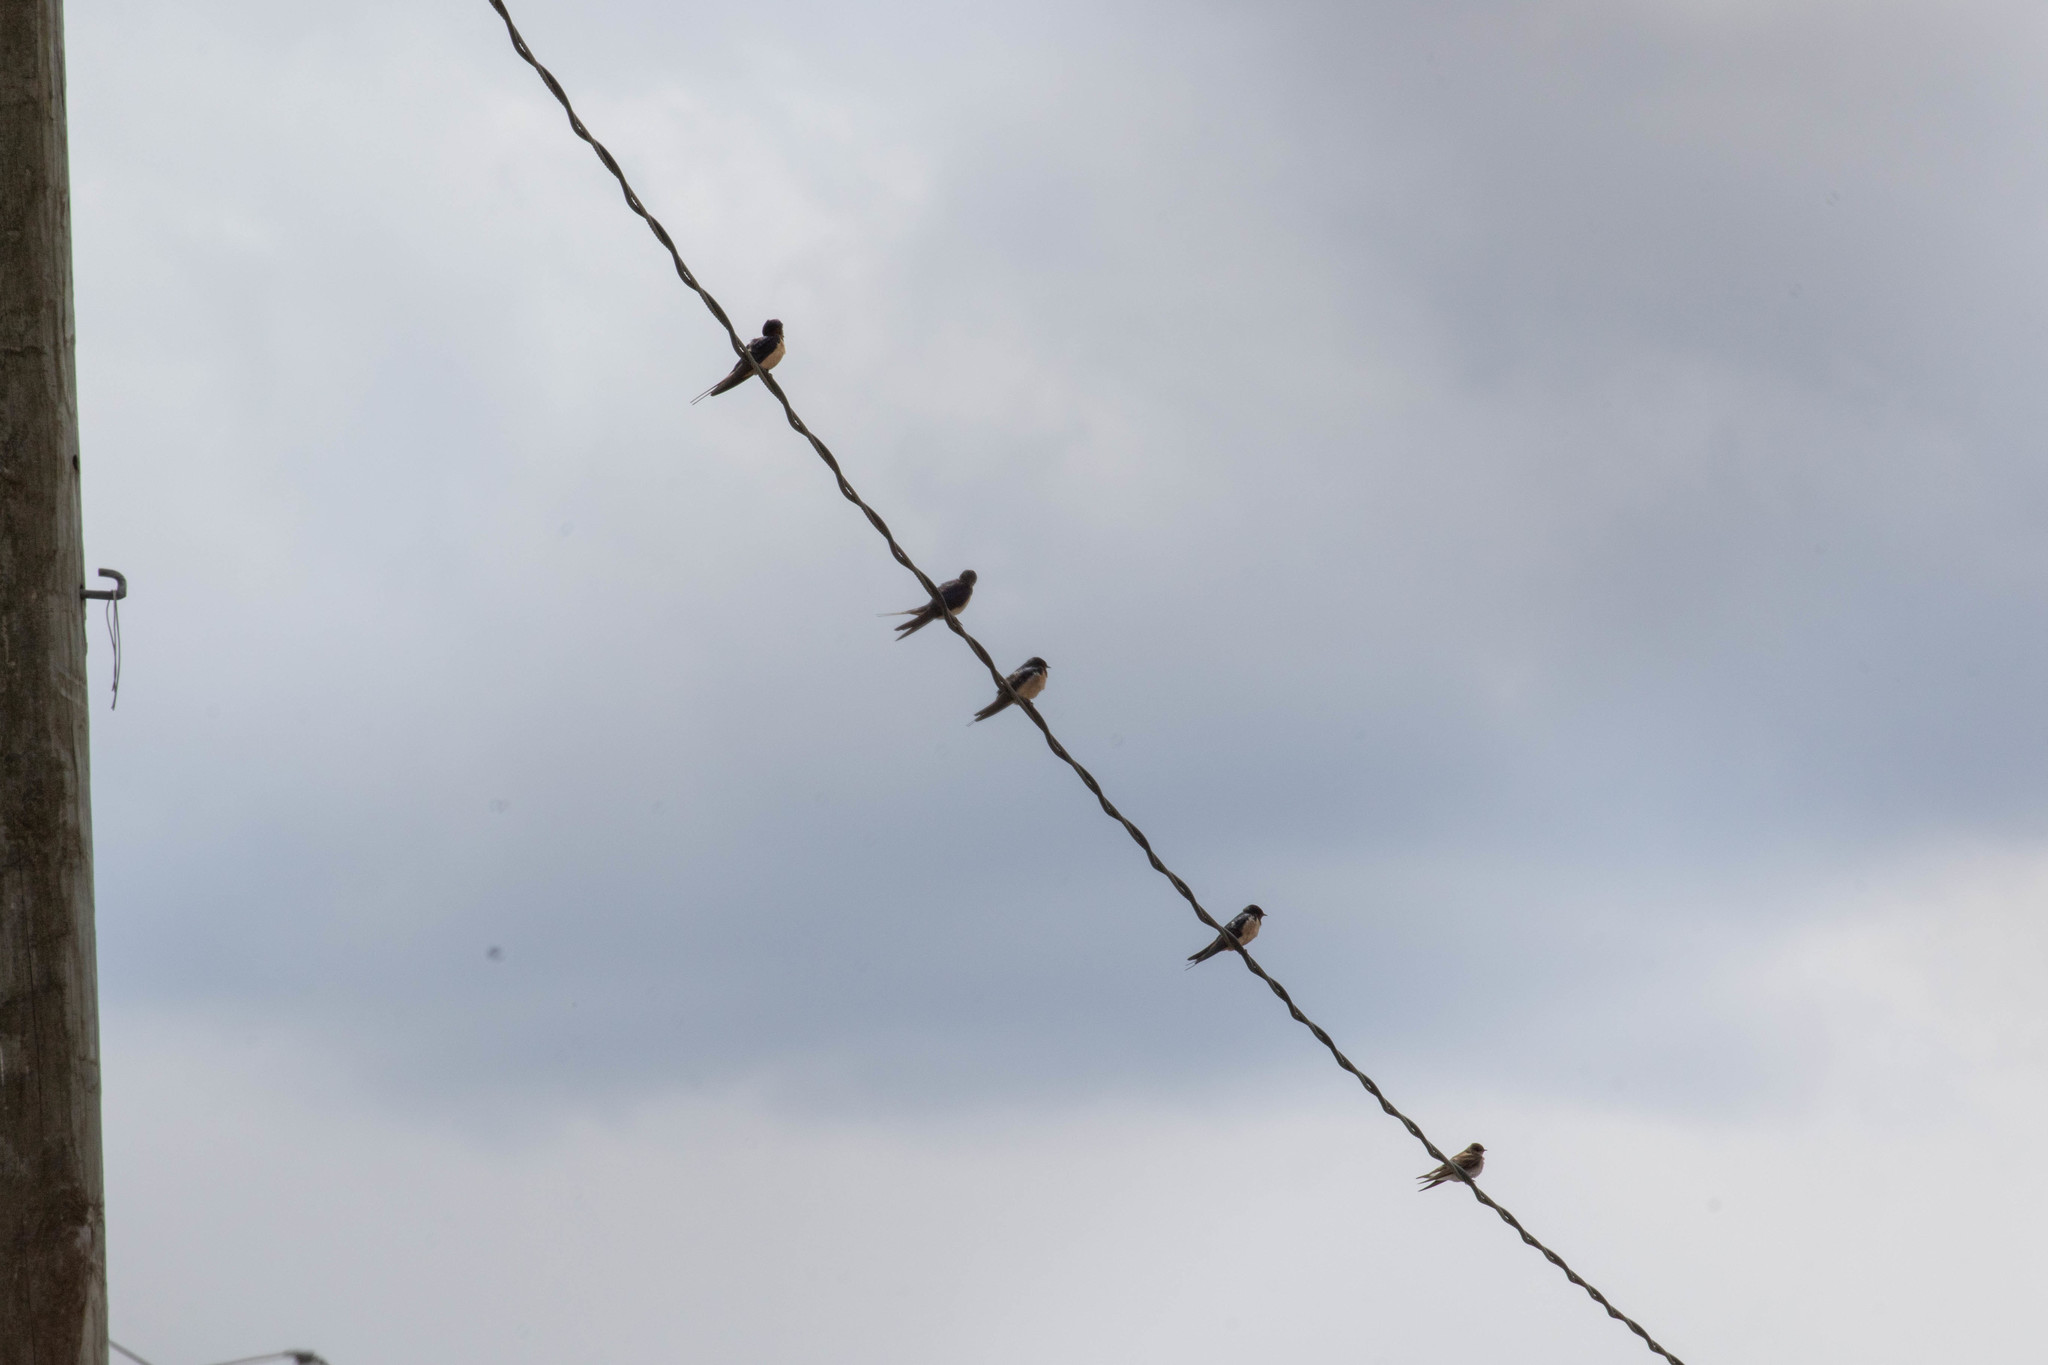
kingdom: Animalia
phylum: Chordata
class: Aves
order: Passeriformes
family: Hirundinidae
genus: Hirundo
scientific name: Hirundo rustica
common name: Barn swallow
